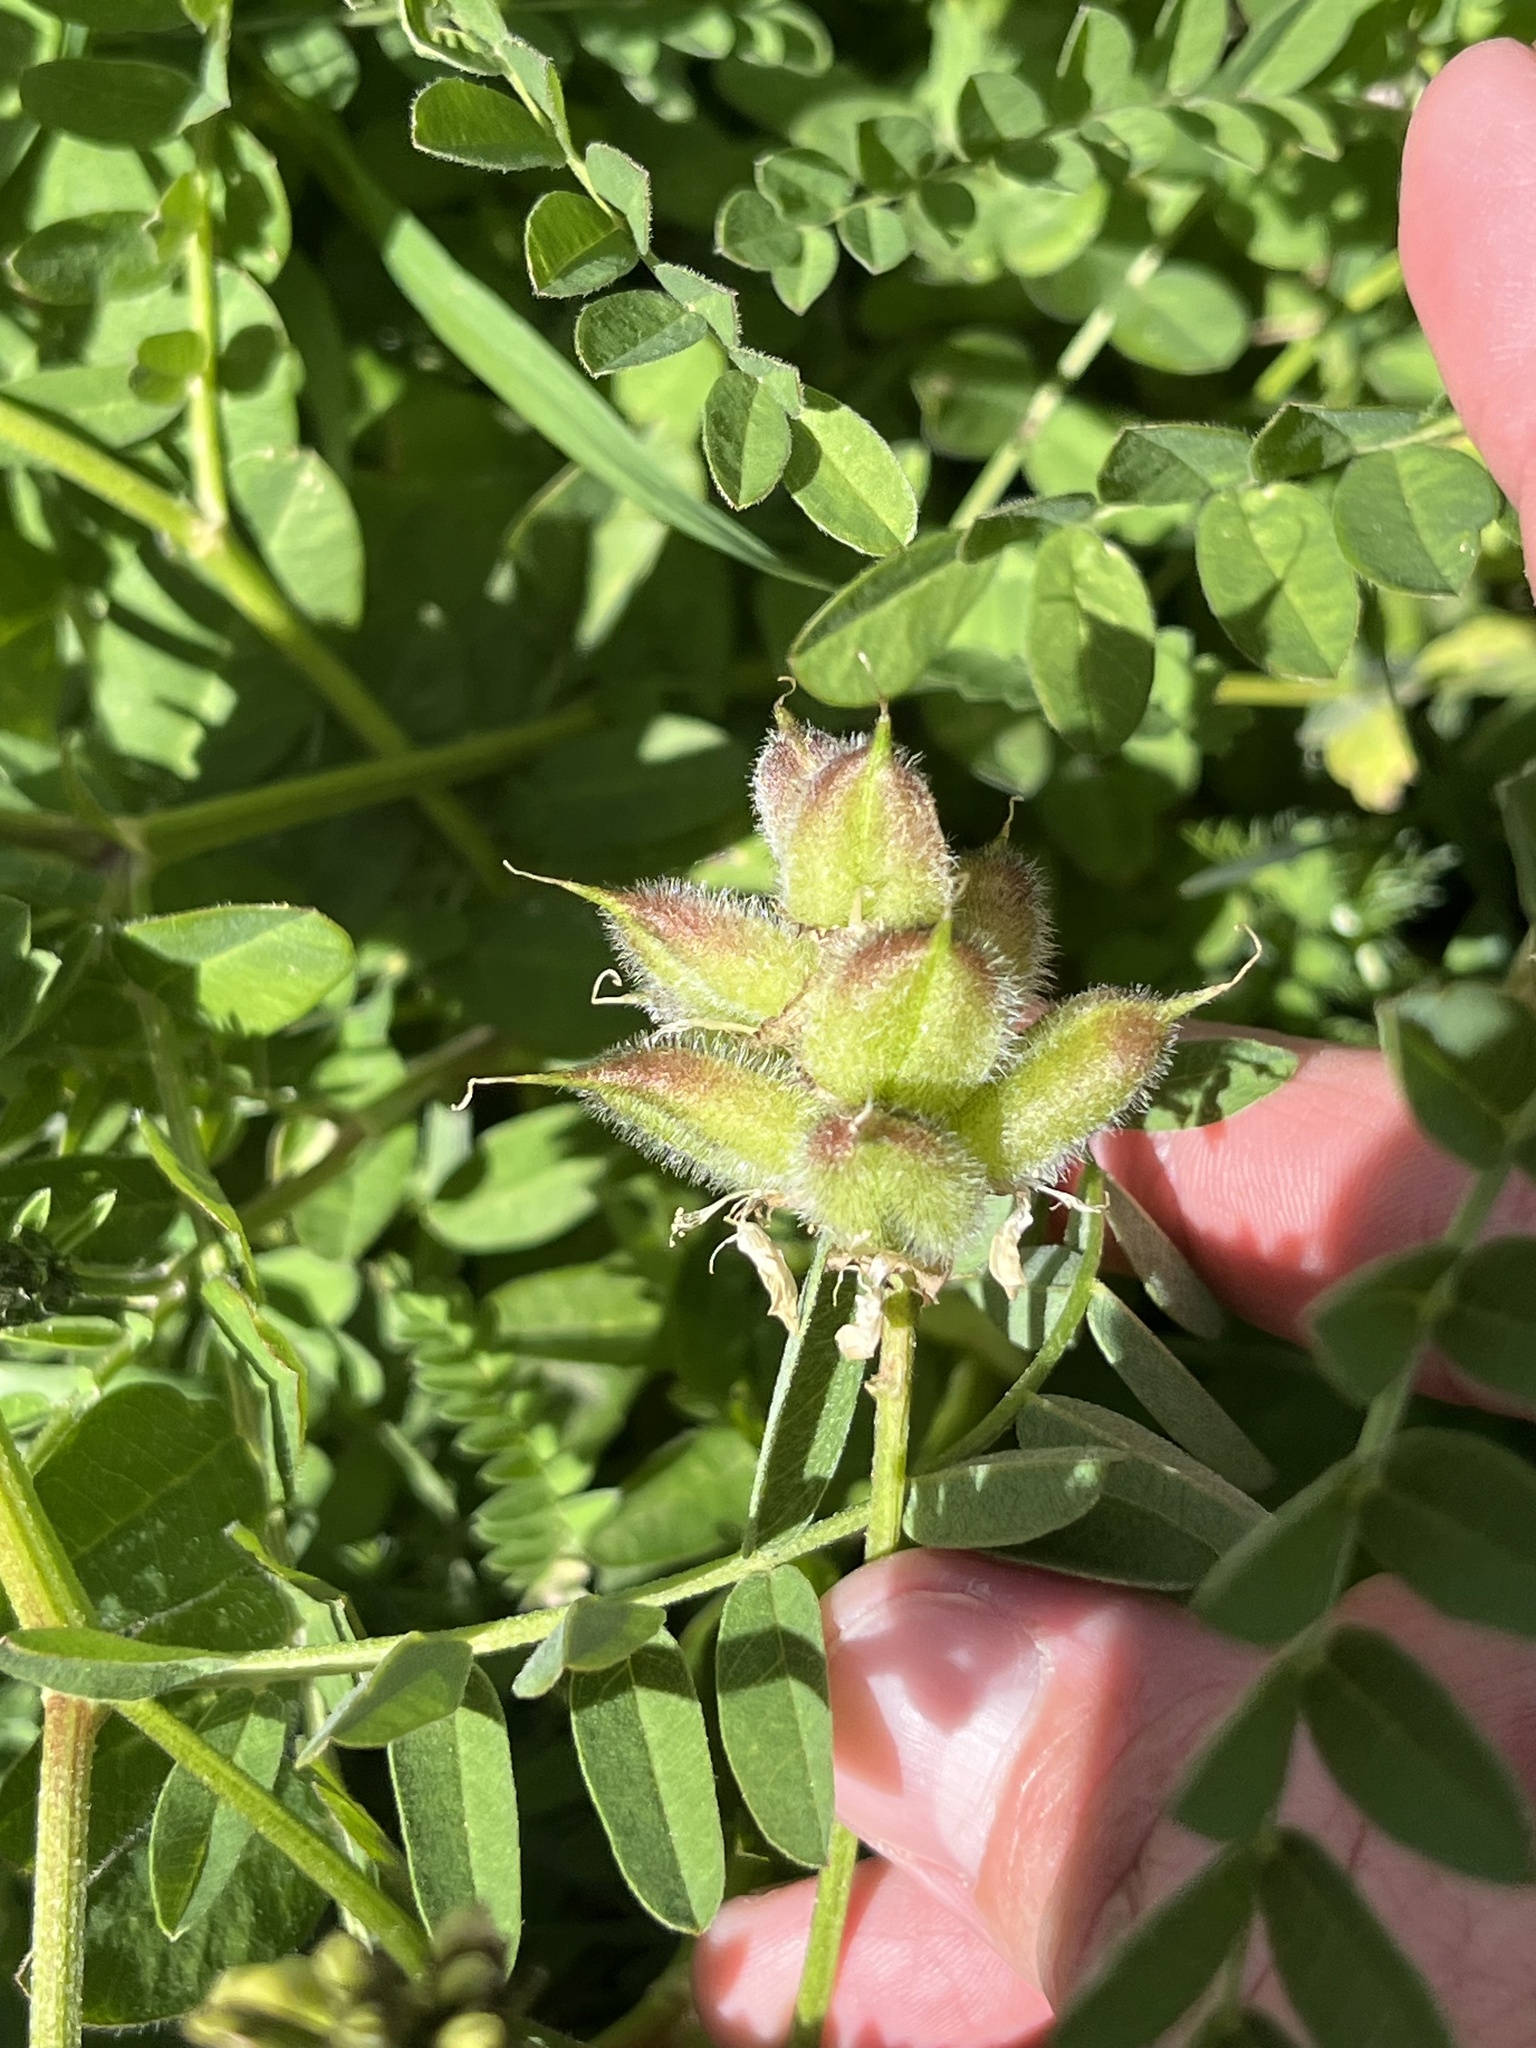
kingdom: Plantae
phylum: Tracheophyta
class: Magnoliopsida
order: Fabales
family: Fabaceae
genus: Astragalus
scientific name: Astragalus cicer
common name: Chick-pea milk-vetch
